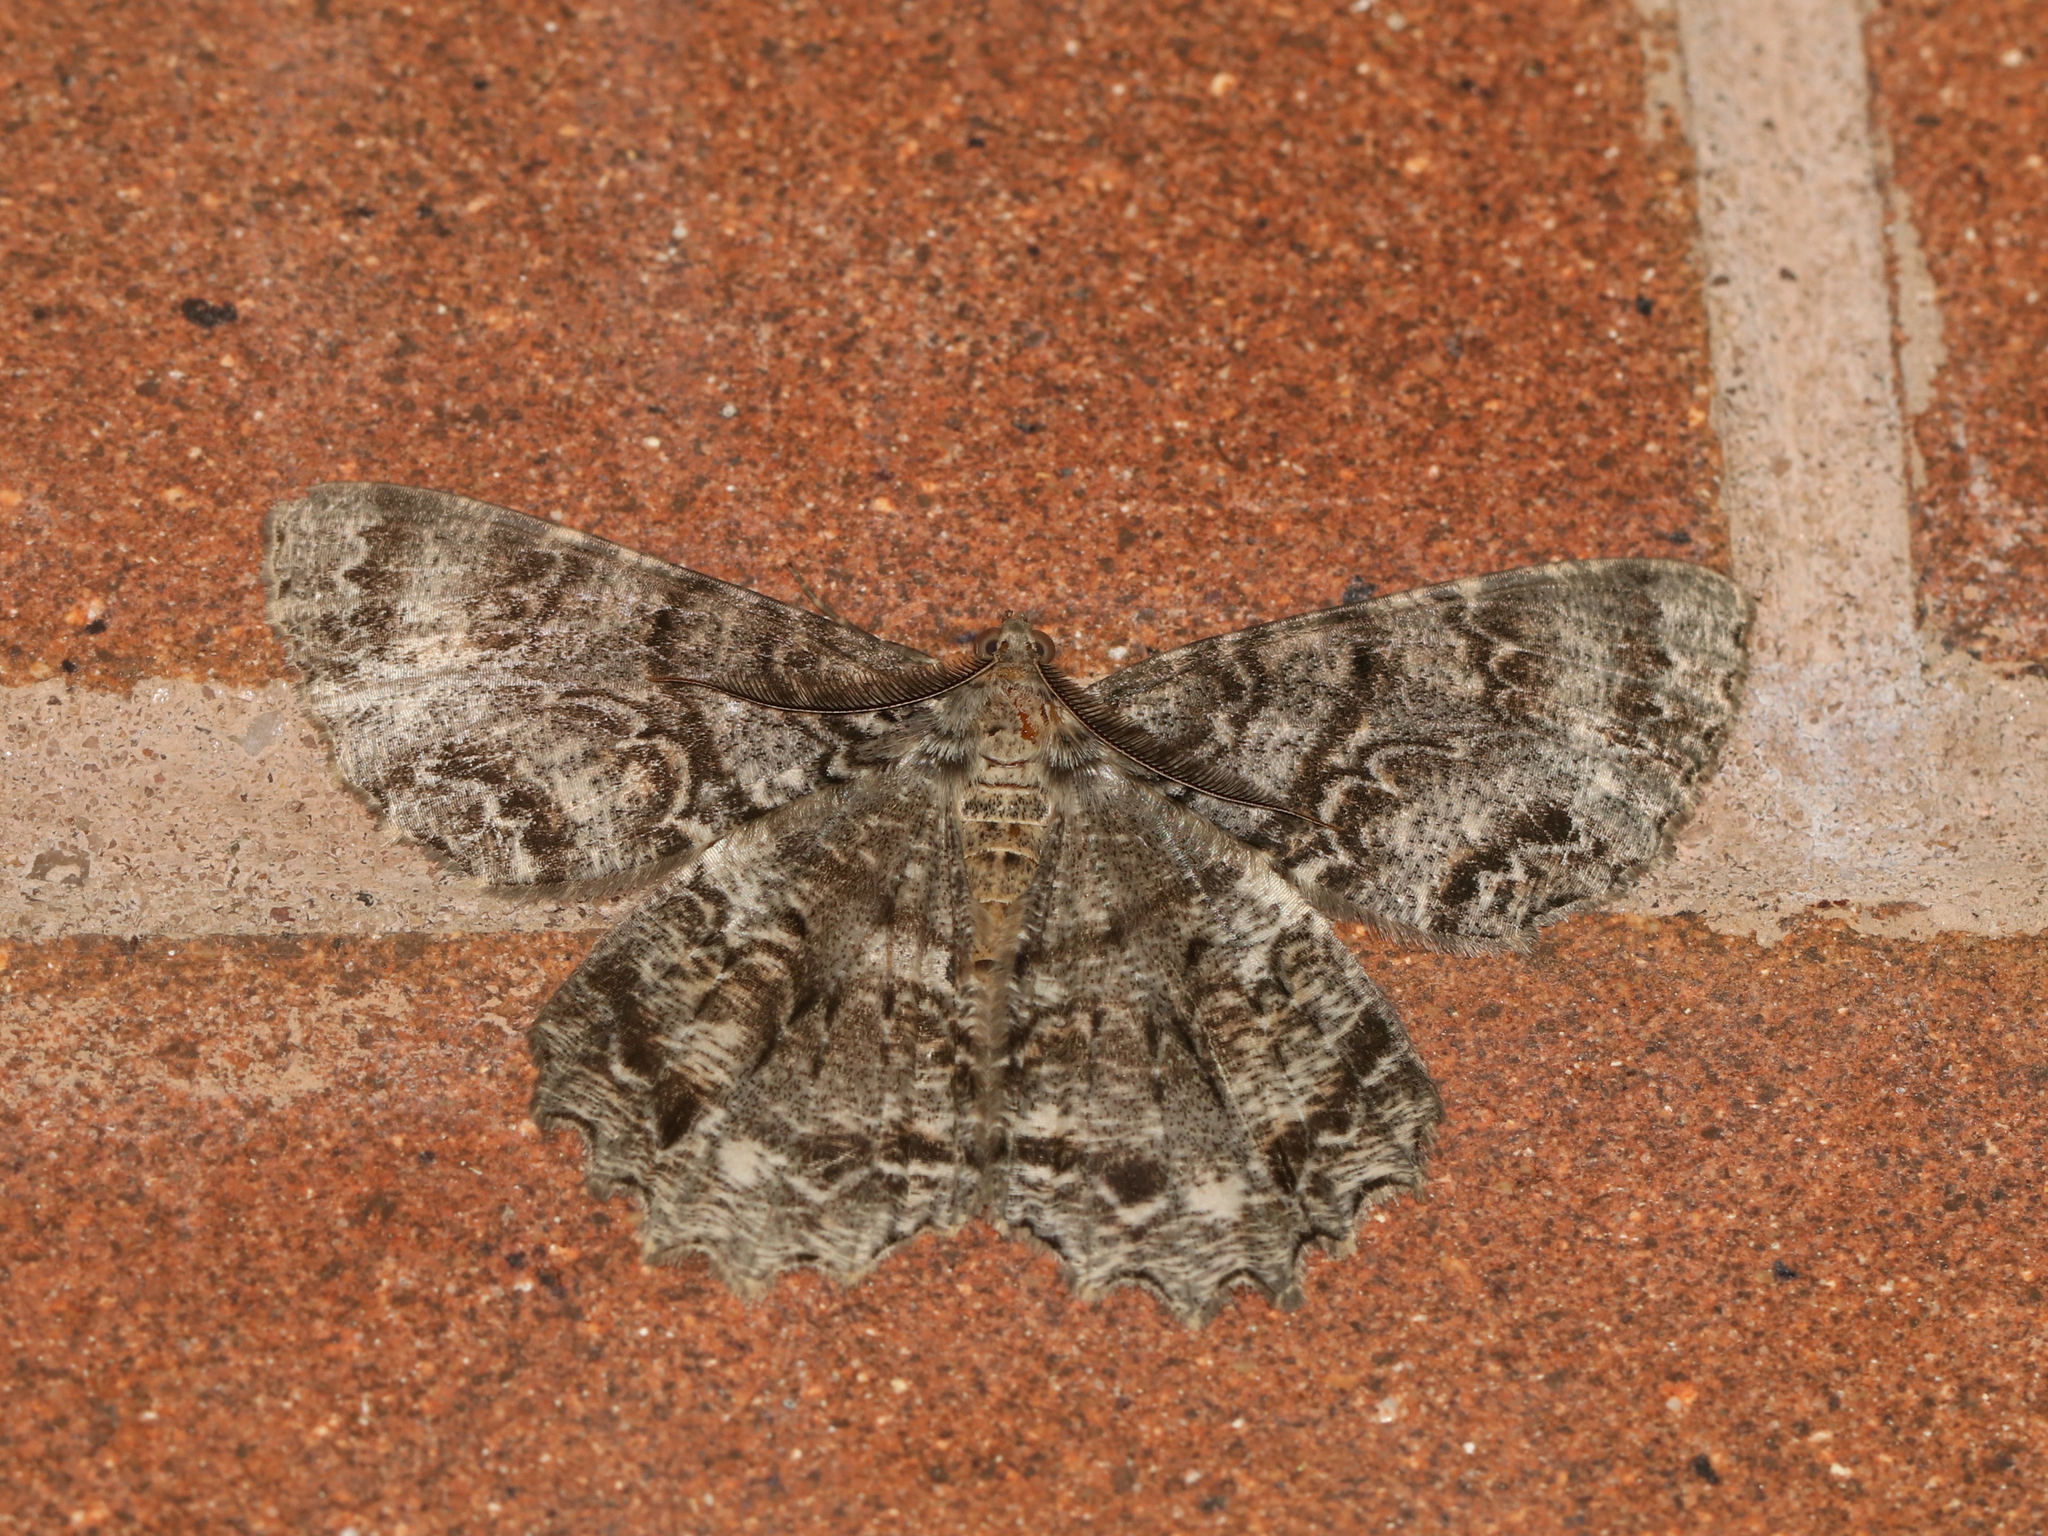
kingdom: Animalia
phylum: Arthropoda
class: Insecta
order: Lepidoptera
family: Geometridae
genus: Epimecis
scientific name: Epimecis hortaria
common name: Tulip-tree beauty
